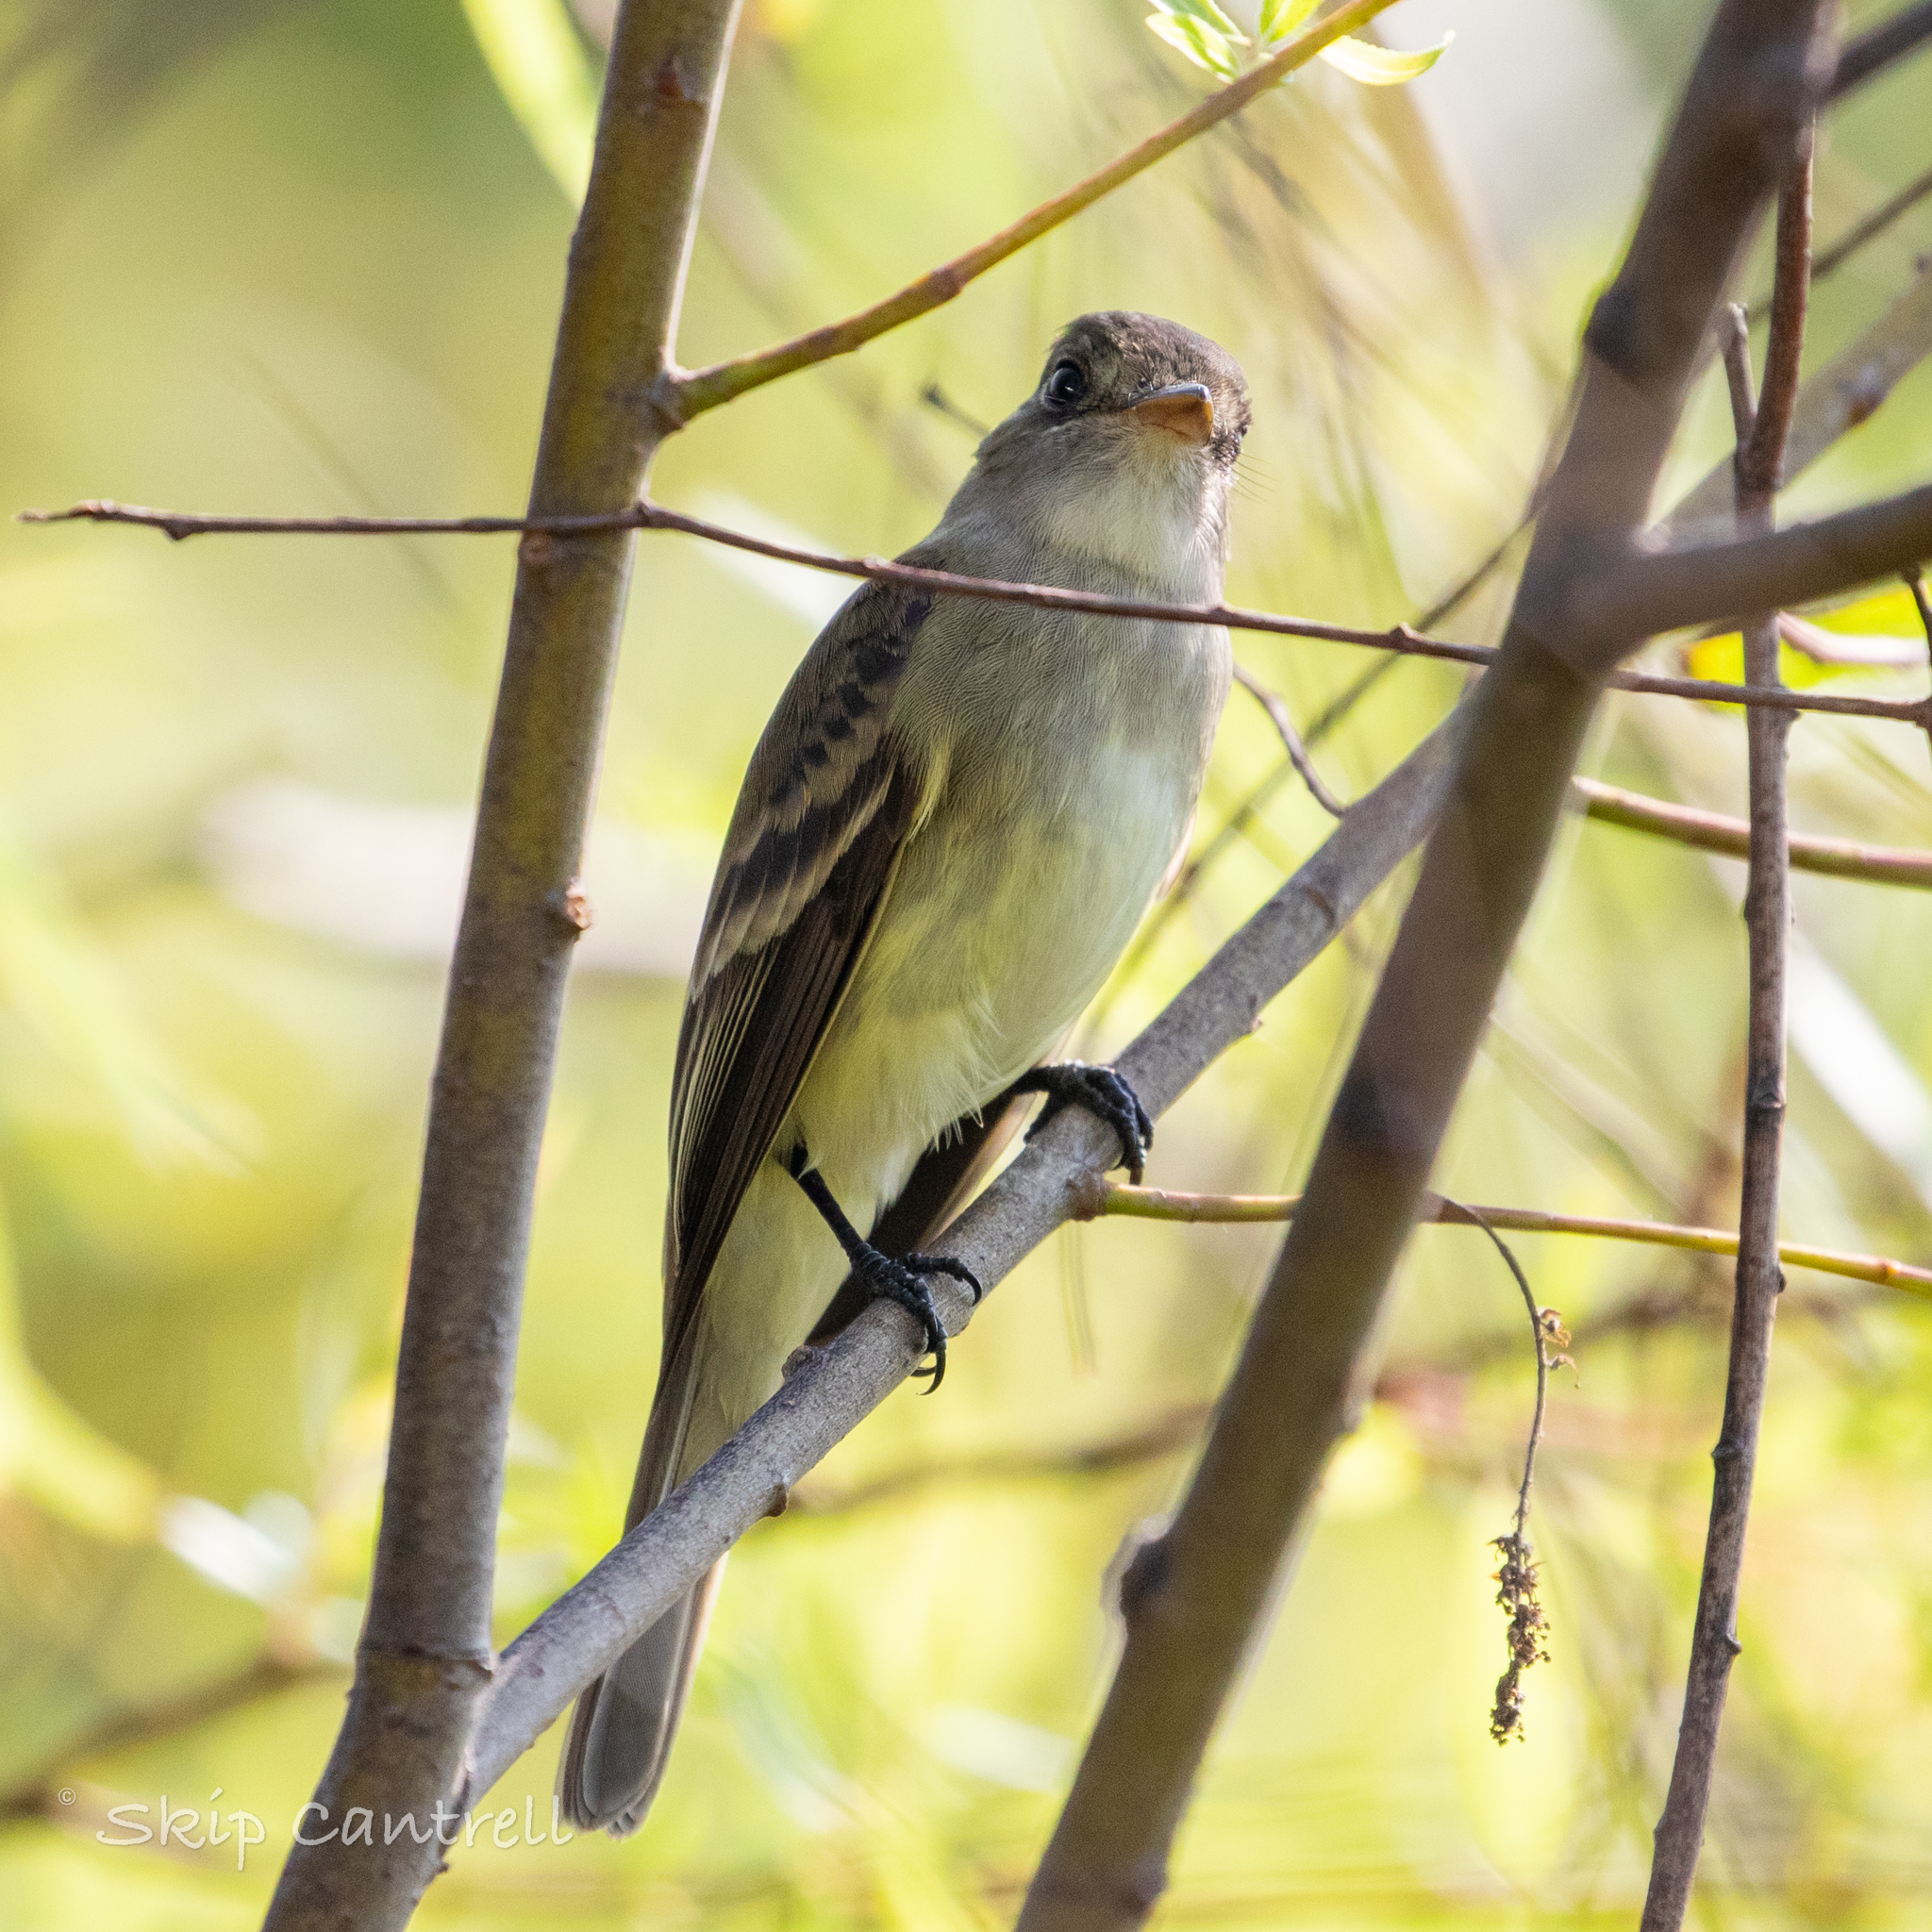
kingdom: Animalia
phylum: Chordata
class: Aves
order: Passeriformes
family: Tyrannidae
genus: Empidonax
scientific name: Empidonax traillii
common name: Willow flycatcher
